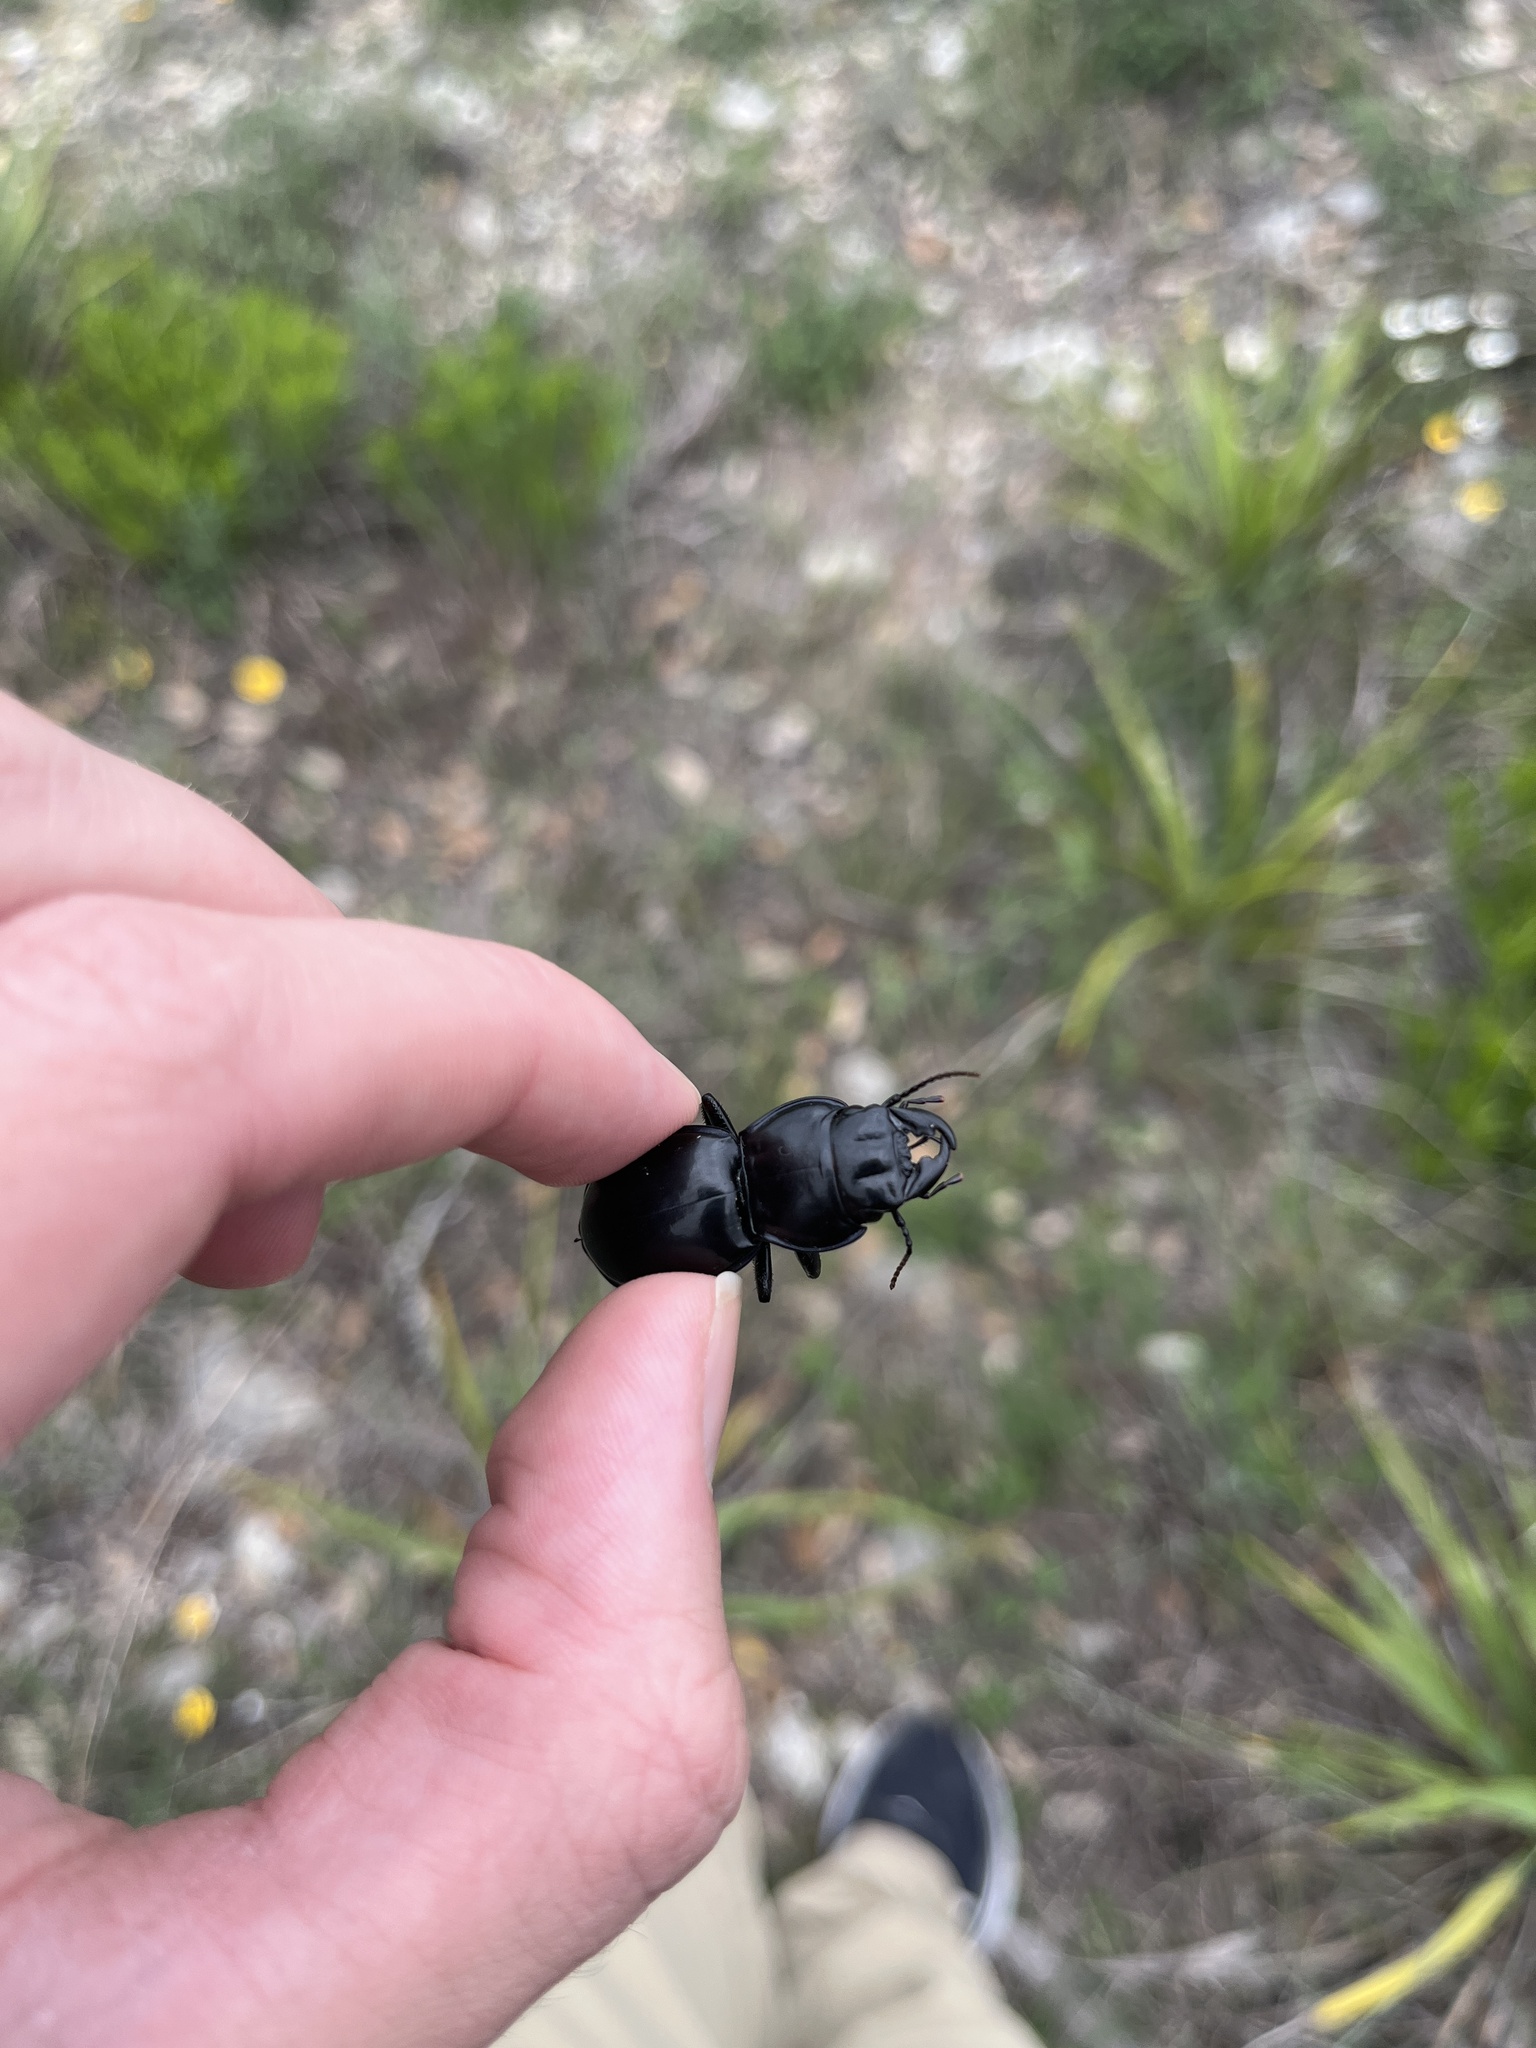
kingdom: Animalia
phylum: Arthropoda
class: Insecta
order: Coleoptera
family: Carabidae
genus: Pasimachus
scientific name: Pasimachus californicus
